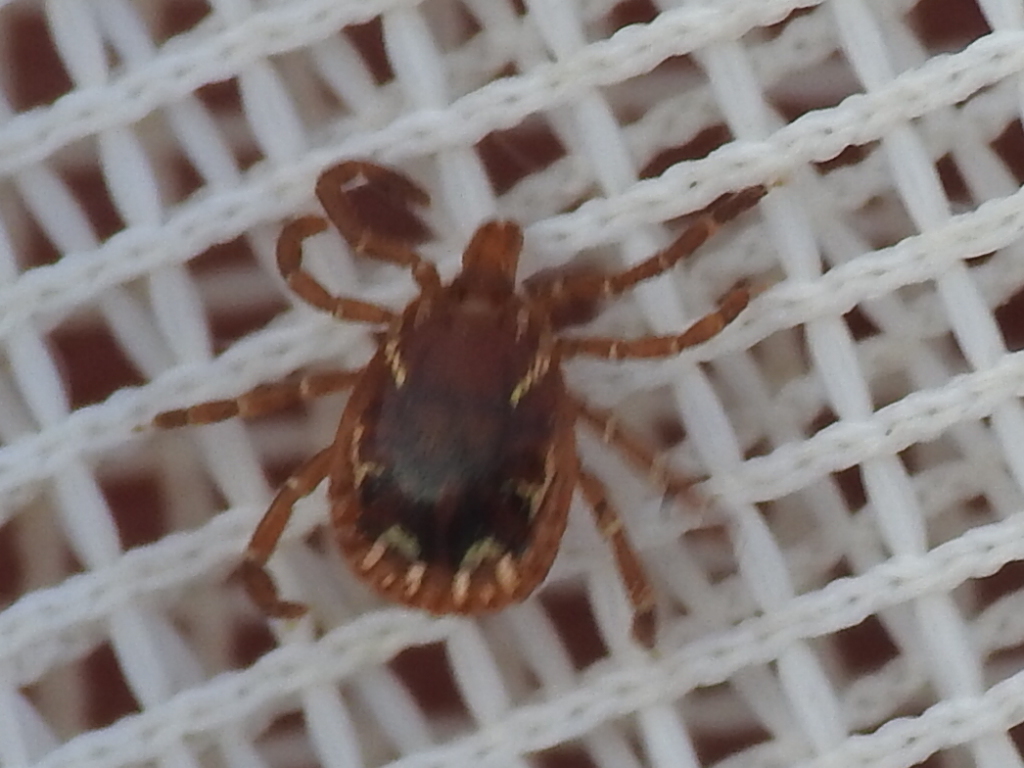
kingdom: Animalia
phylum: Arthropoda
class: Arachnida
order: Ixodida
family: Ixodidae
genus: Amblyomma
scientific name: Amblyomma americanum
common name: Lone star tick
